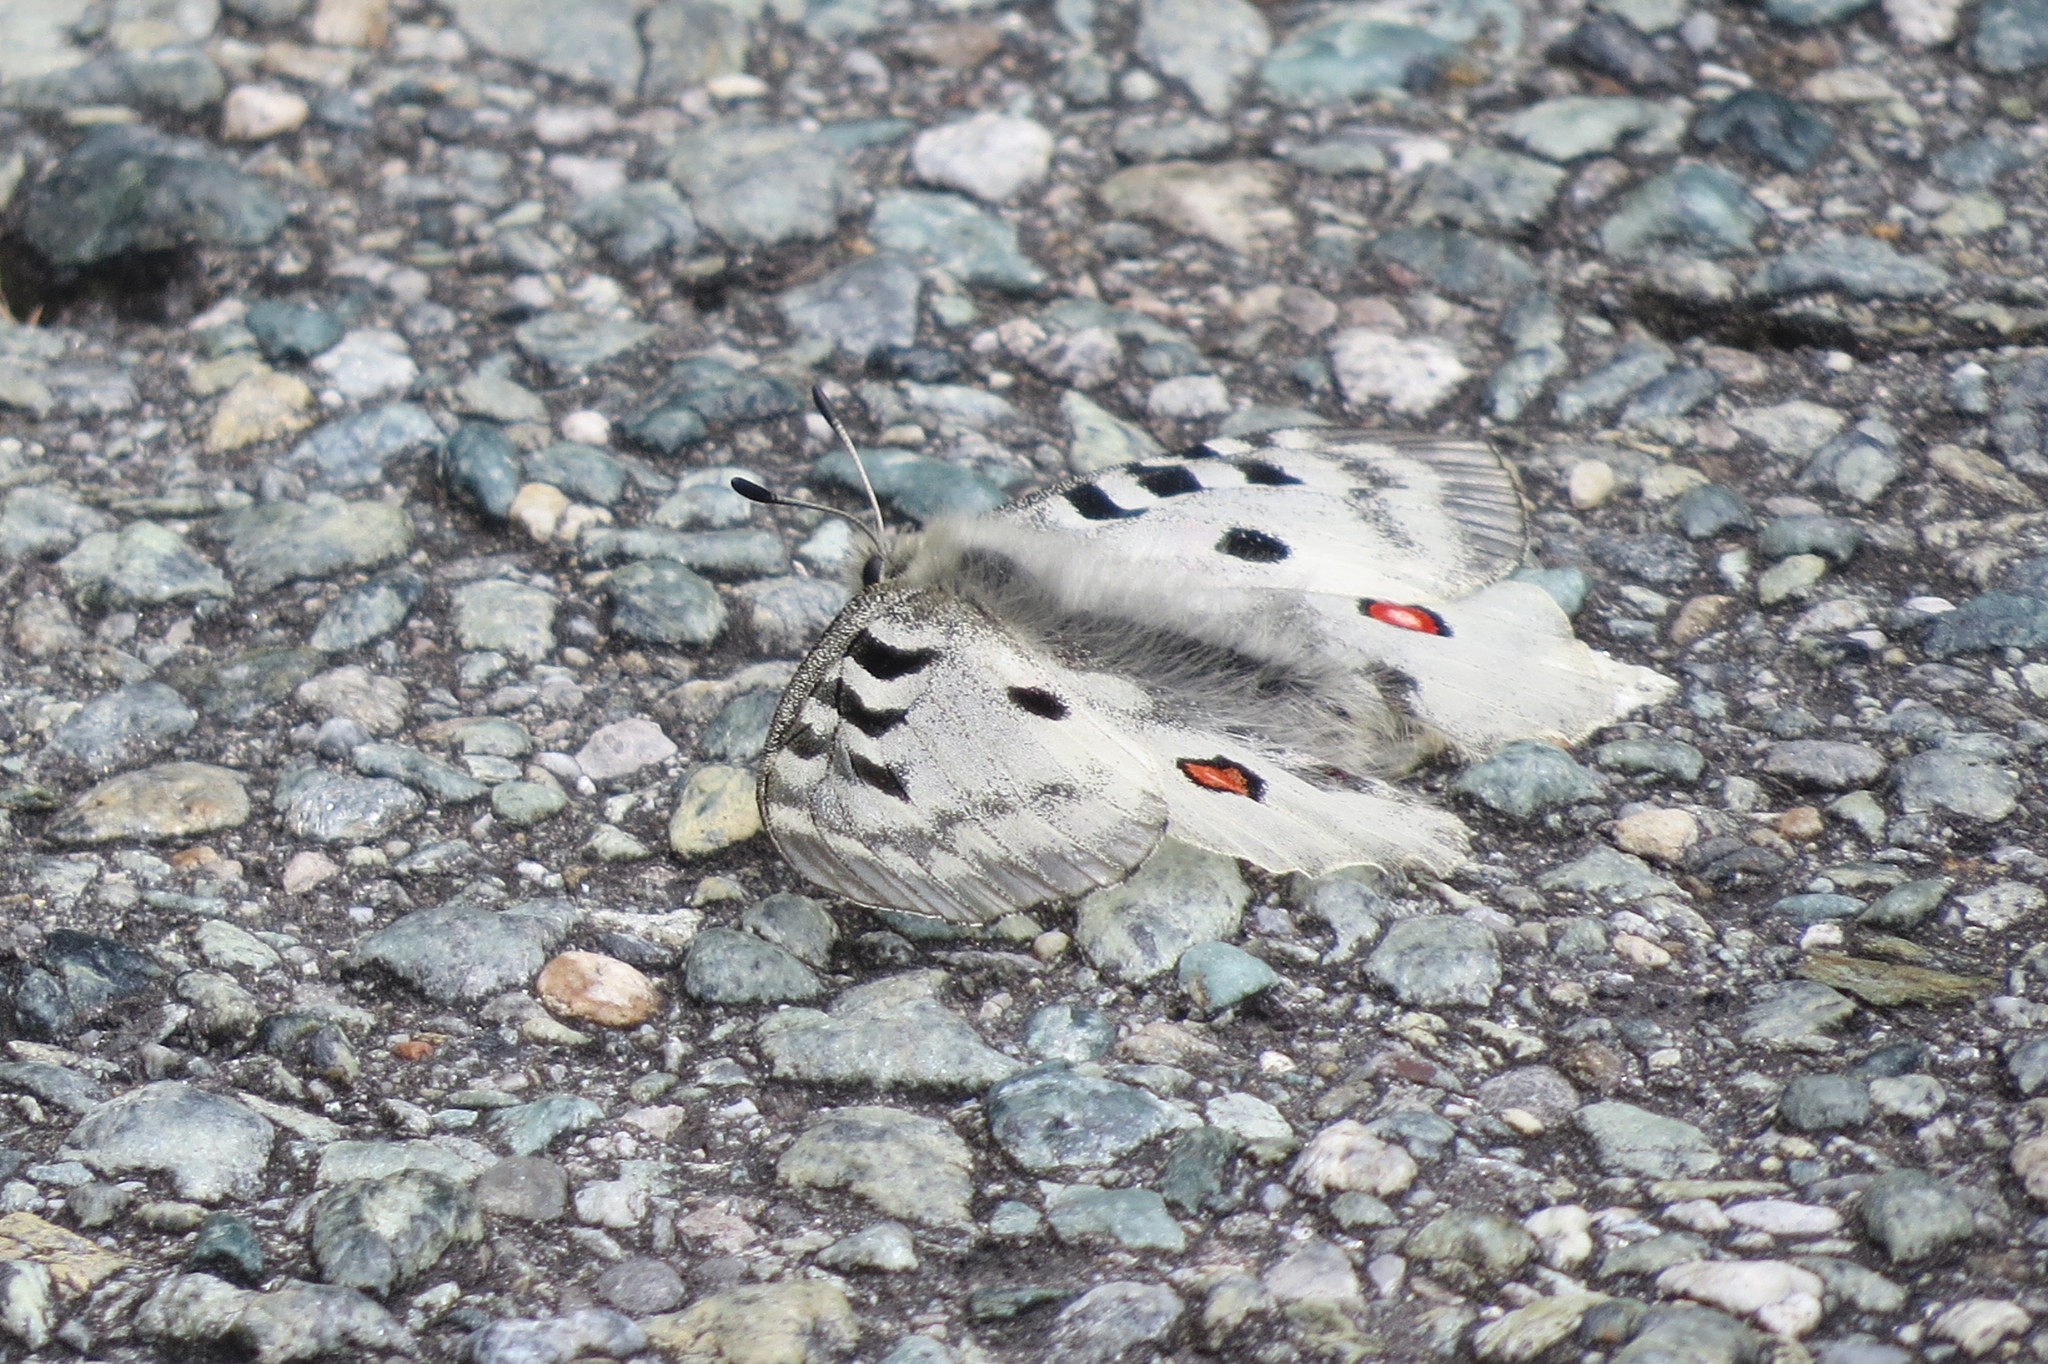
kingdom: Animalia
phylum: Arthropoda
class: Insecta
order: Lepidoptera
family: Papilionidae
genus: Parnassius
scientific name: Parnassius apollo
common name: Apollo
